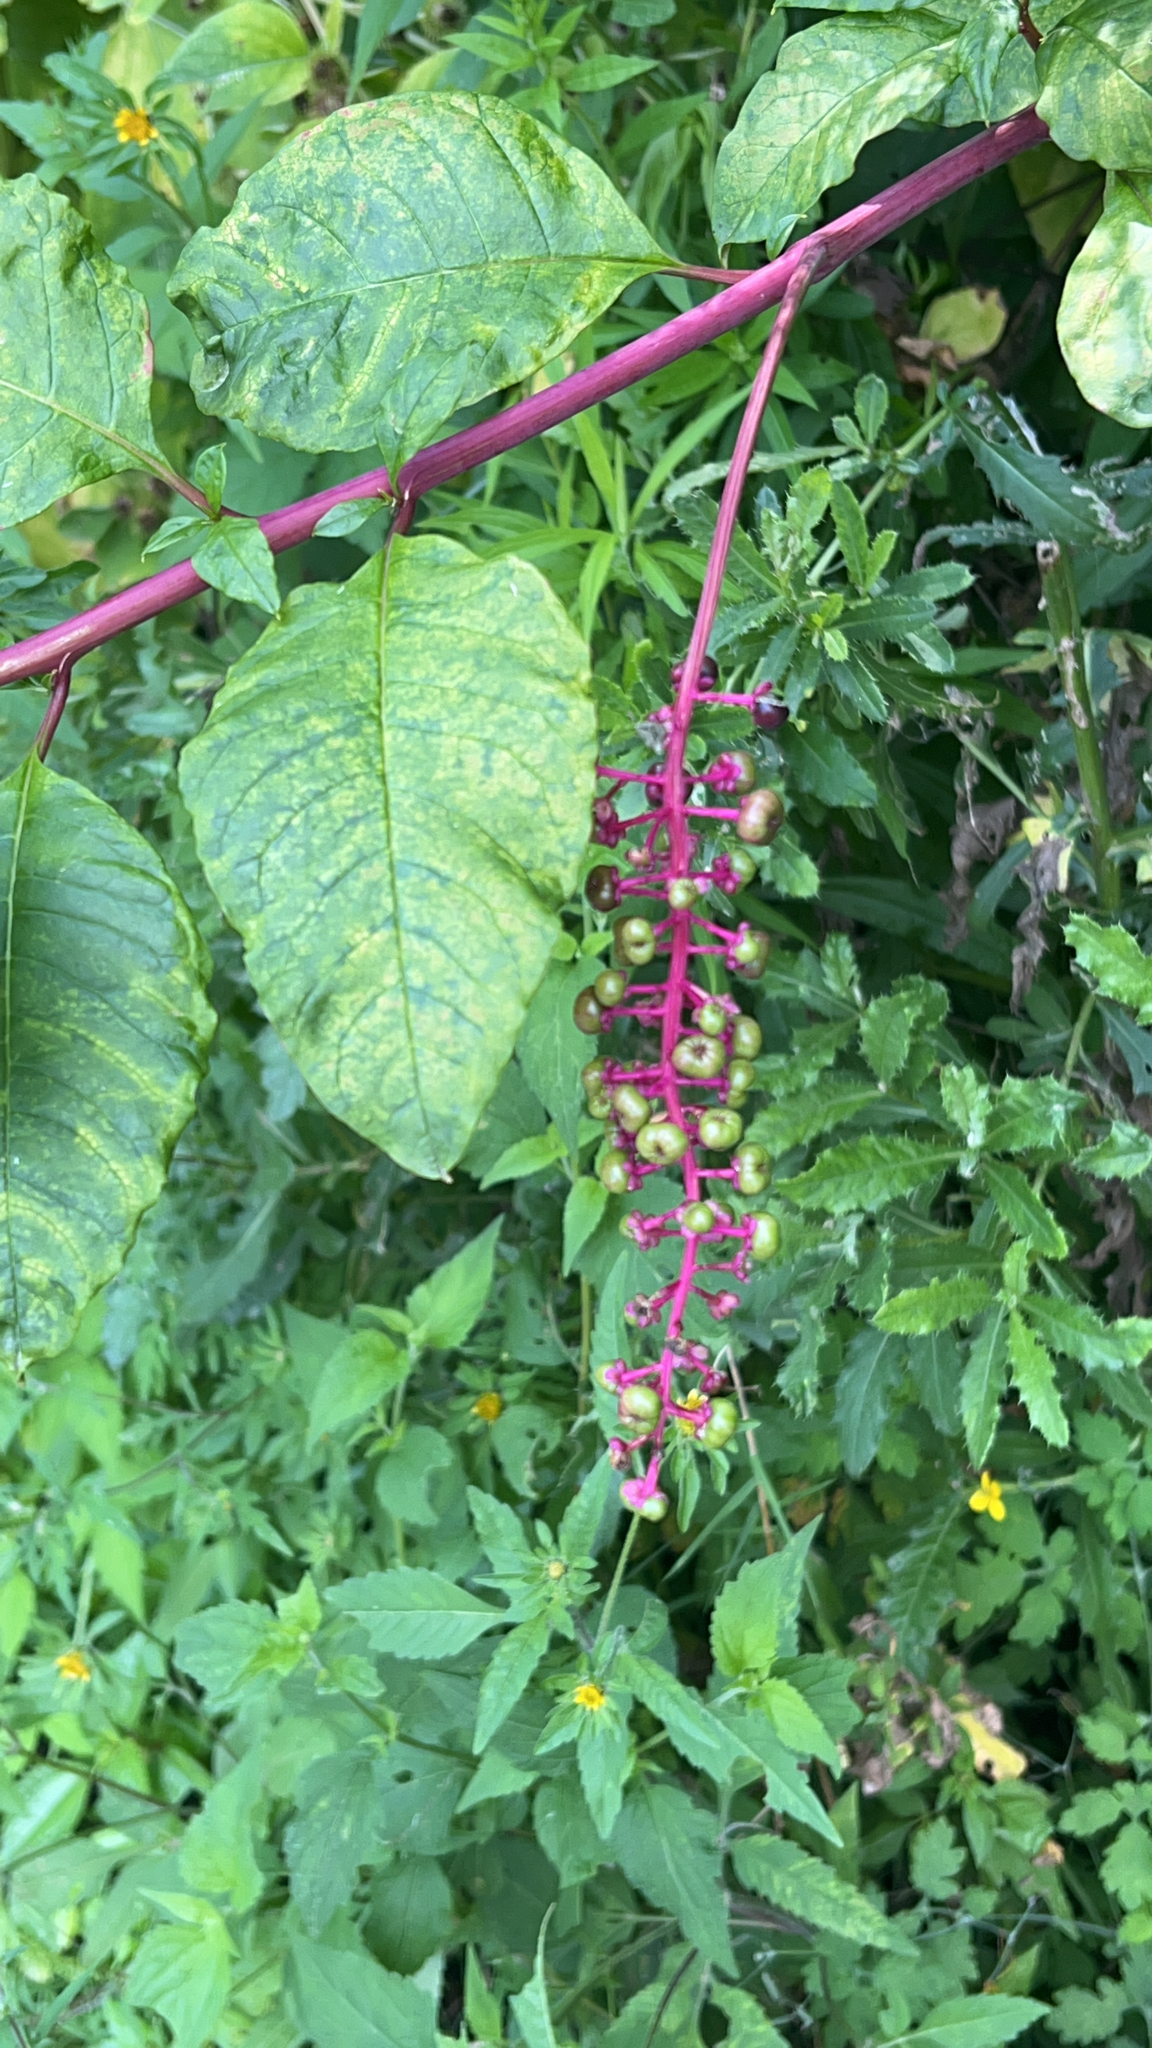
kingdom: Plantae
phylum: Tracheophyta
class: Magnoliopsida
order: Caryophyllales
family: Phytolaccaceae
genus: Phytolacca
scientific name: Phytolacca americana
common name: American pokeweed
